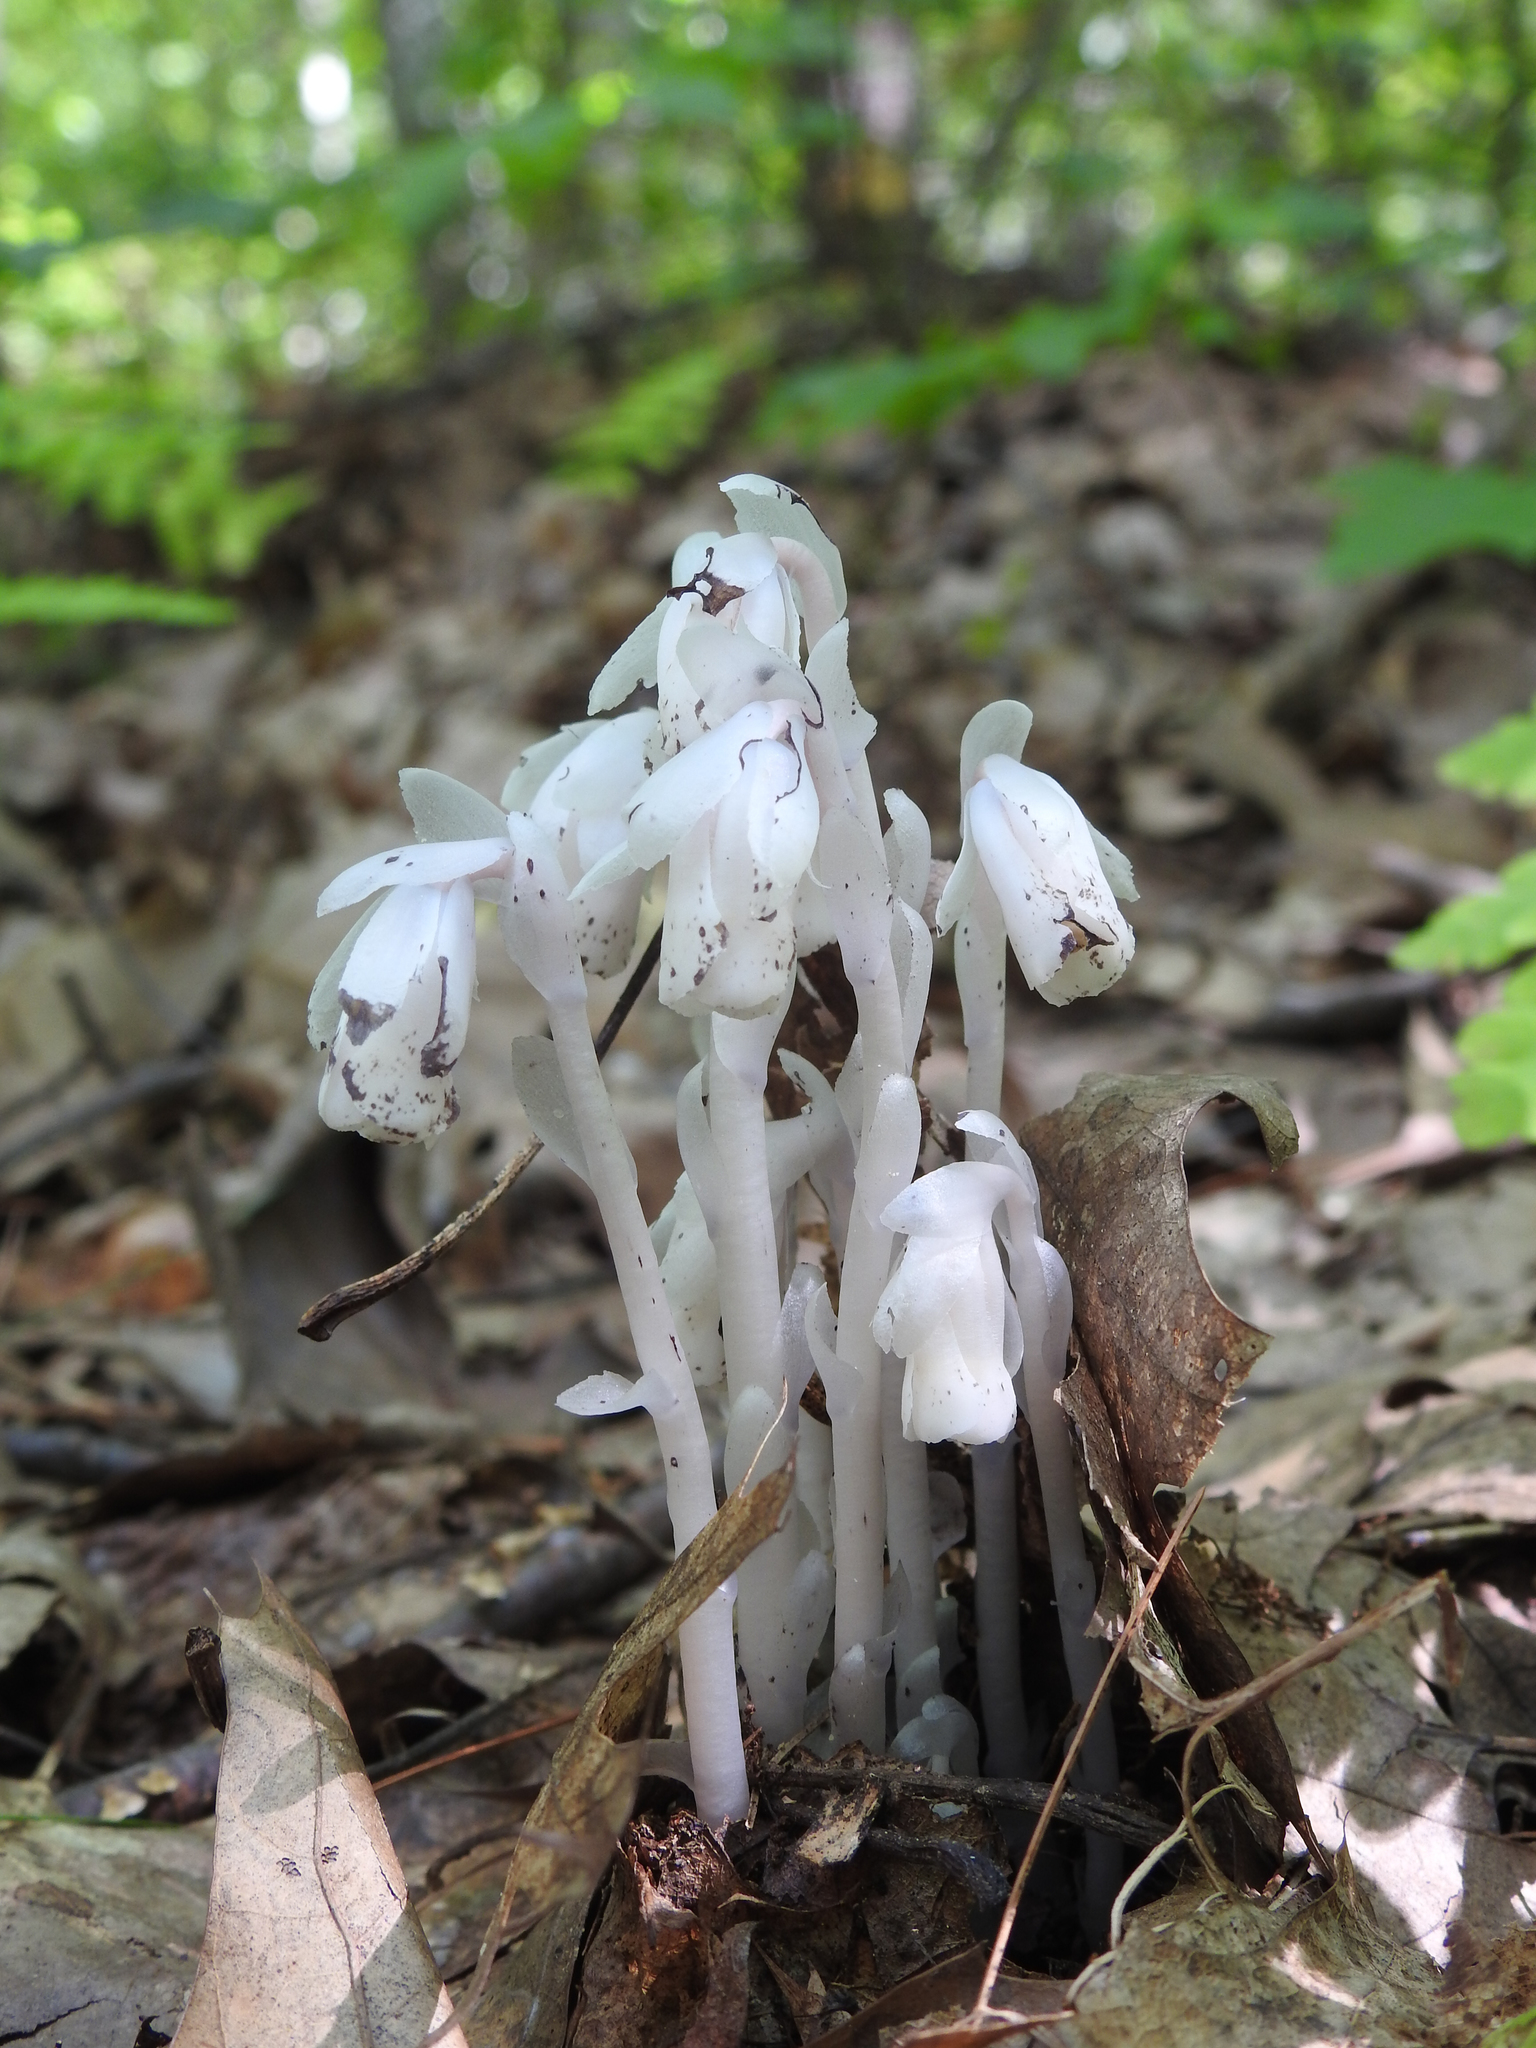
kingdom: Plantae
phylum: Tracheophyta
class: Magnoliopsida
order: Ericales
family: Ericaceae
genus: Monotropa
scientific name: Monotropa uniflora
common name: Convulsion root
